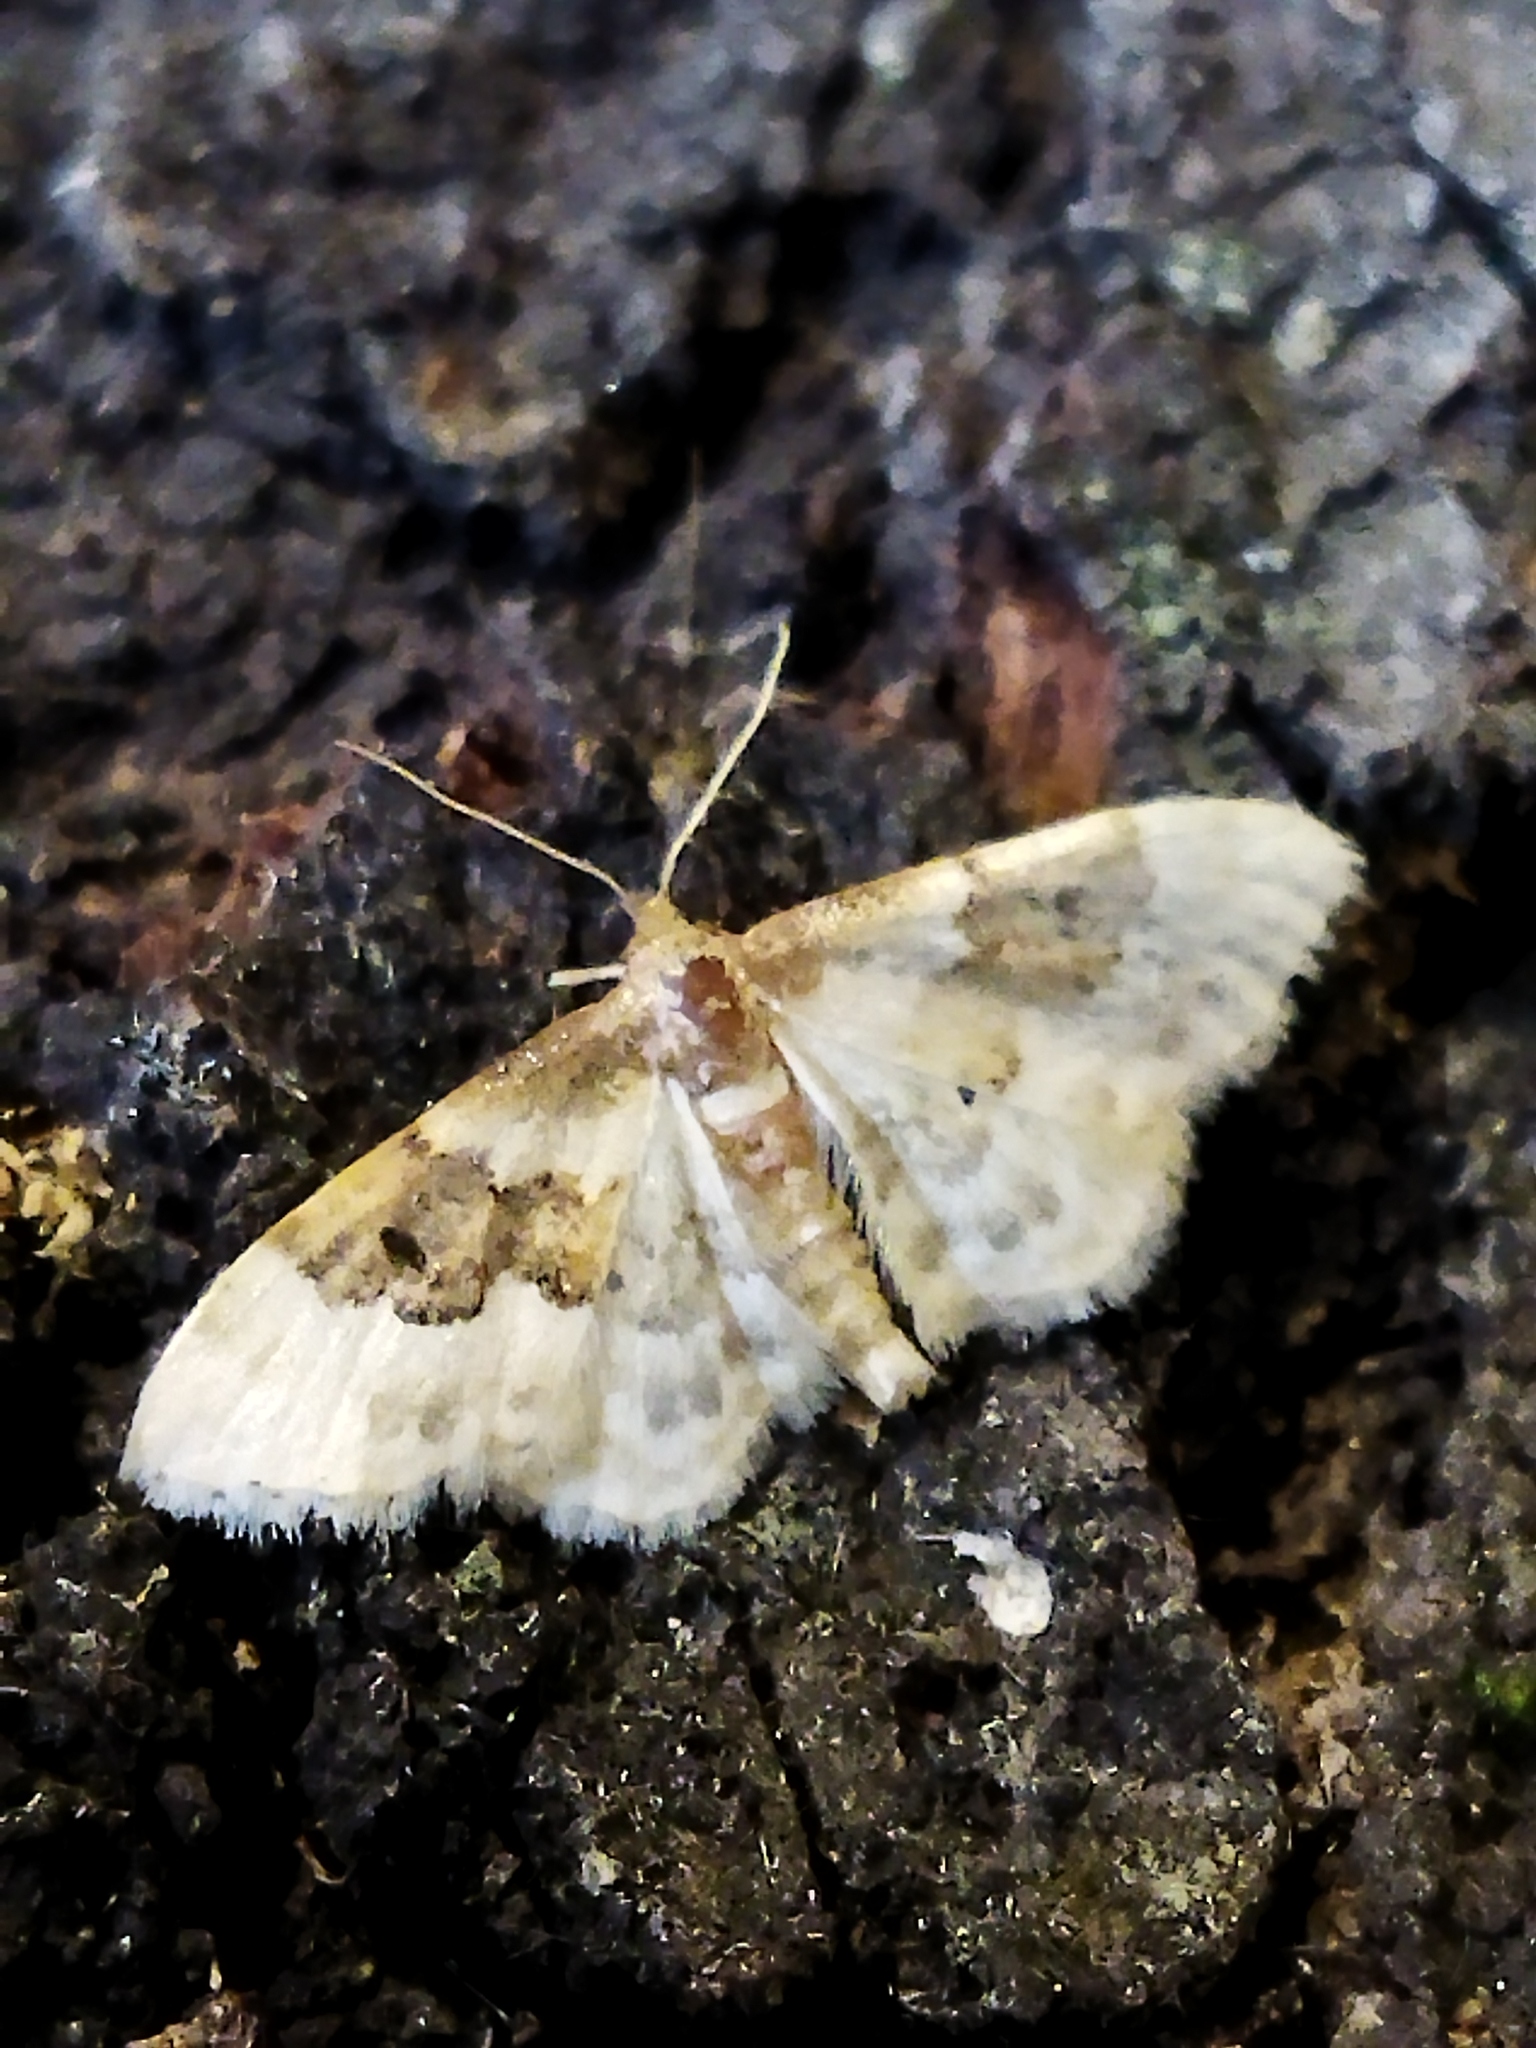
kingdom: Animalia
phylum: Arthropoda
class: Insecta
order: Lepidoptera
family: Geometridae
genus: Idaea
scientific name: Idaea rusticata
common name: Least carpet
